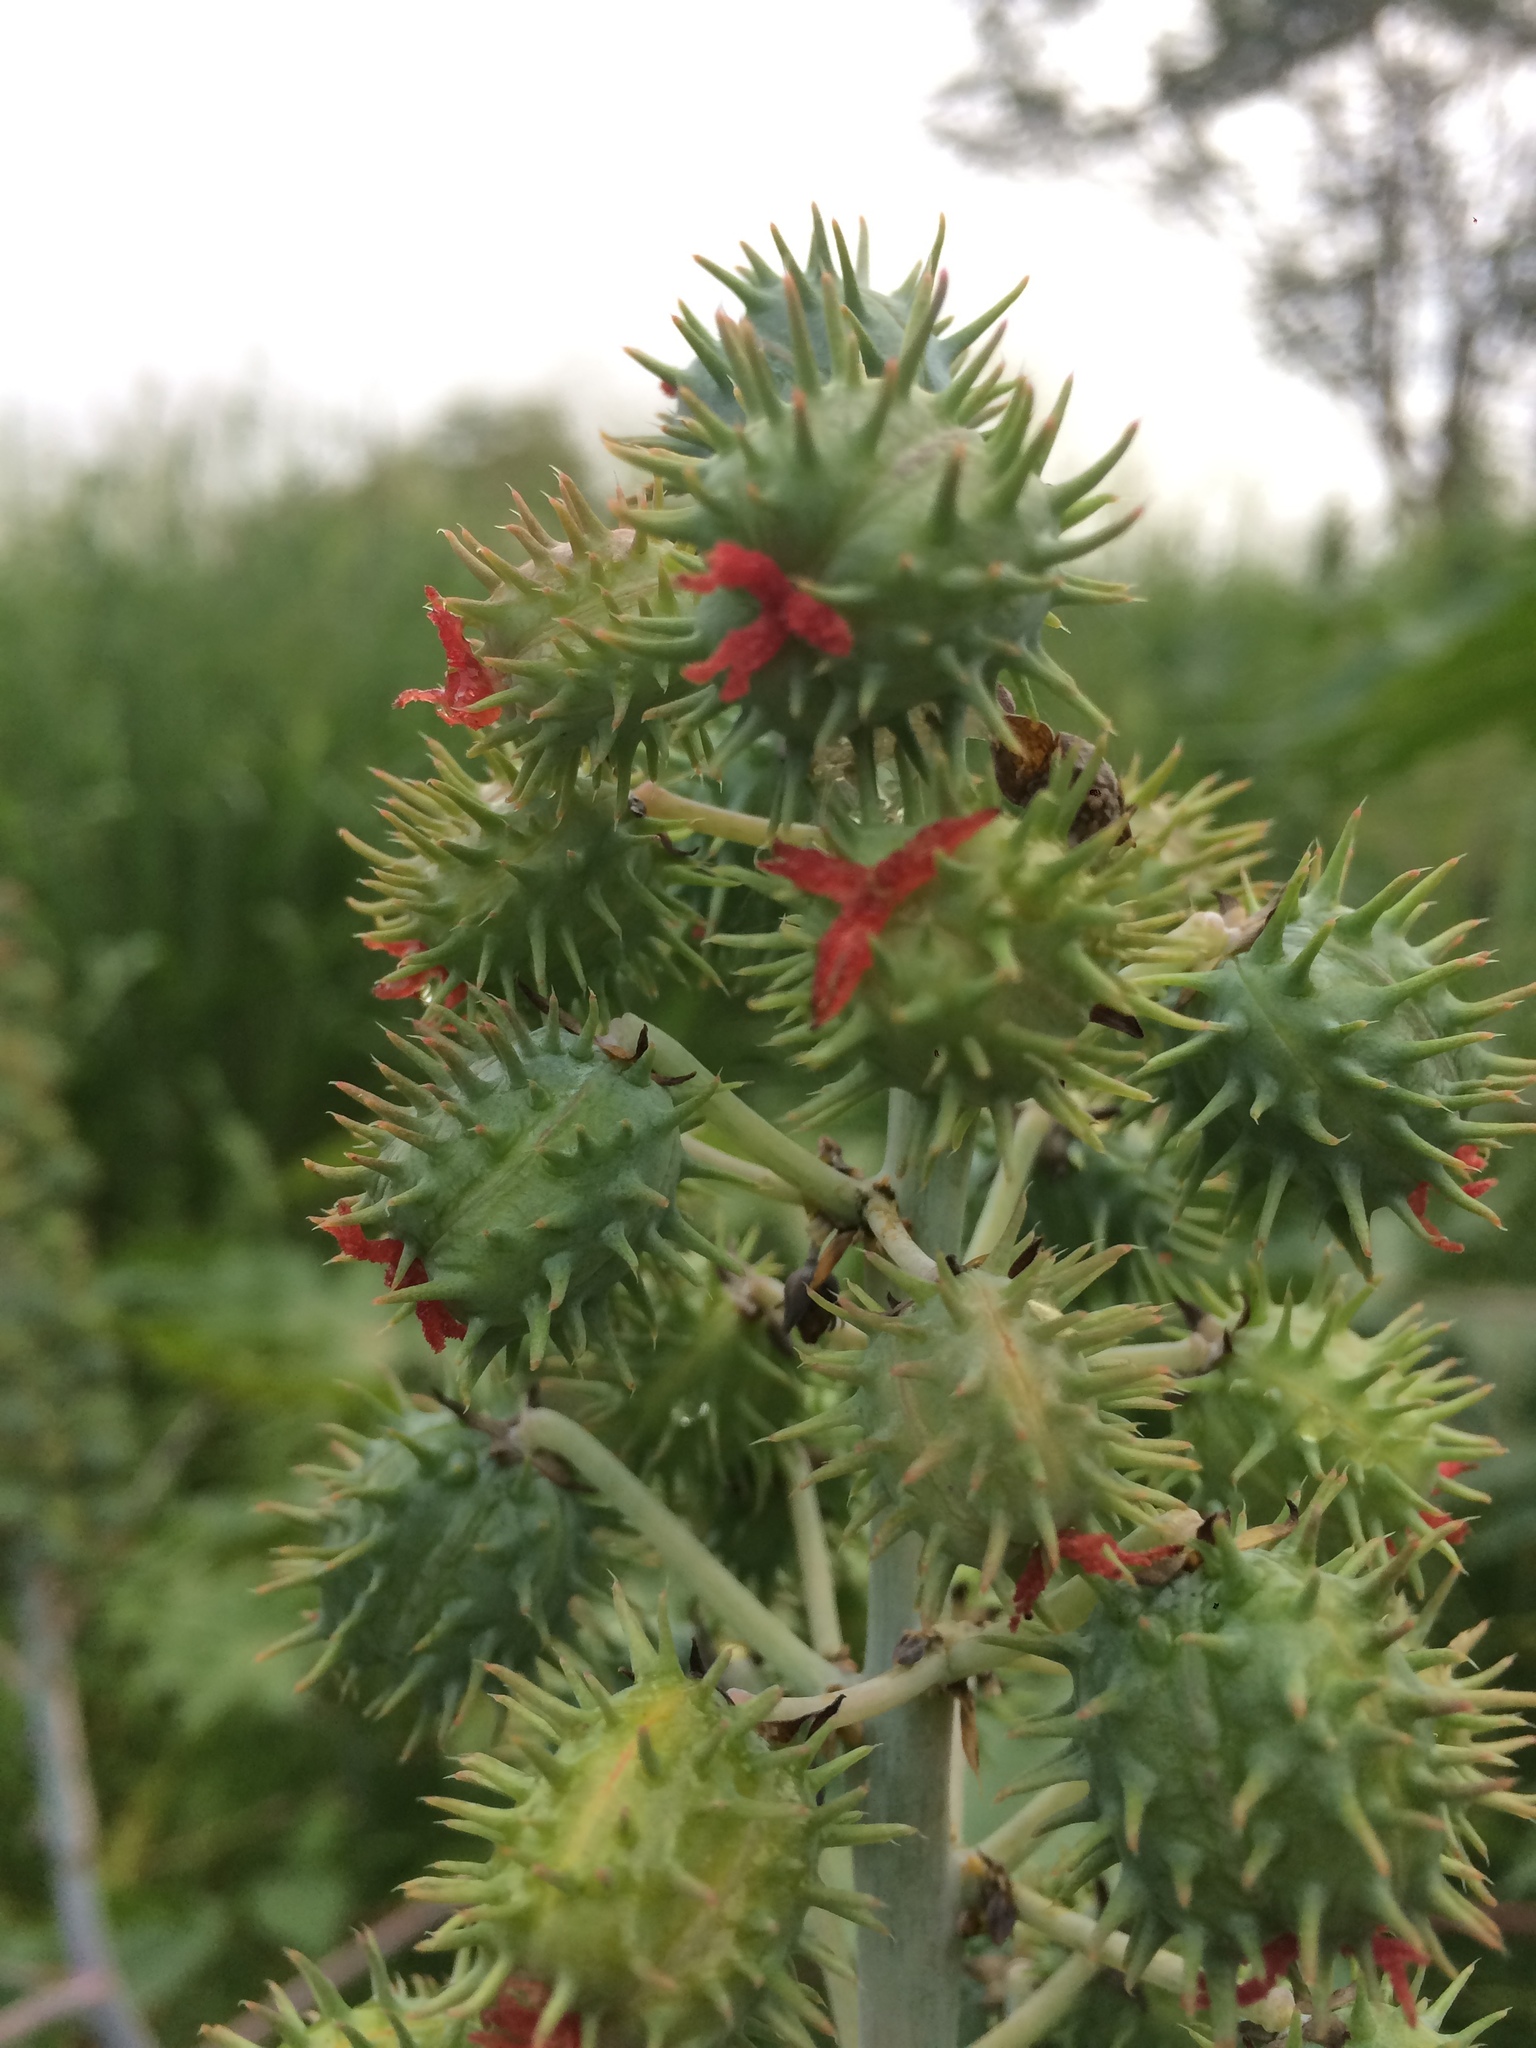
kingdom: Plantae
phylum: Tracheophyta
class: Magnoliopsida
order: Malpighiales
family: Euphorbiaceae
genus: Ricinus
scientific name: Ricinus communis
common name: Castor-oil-plant
